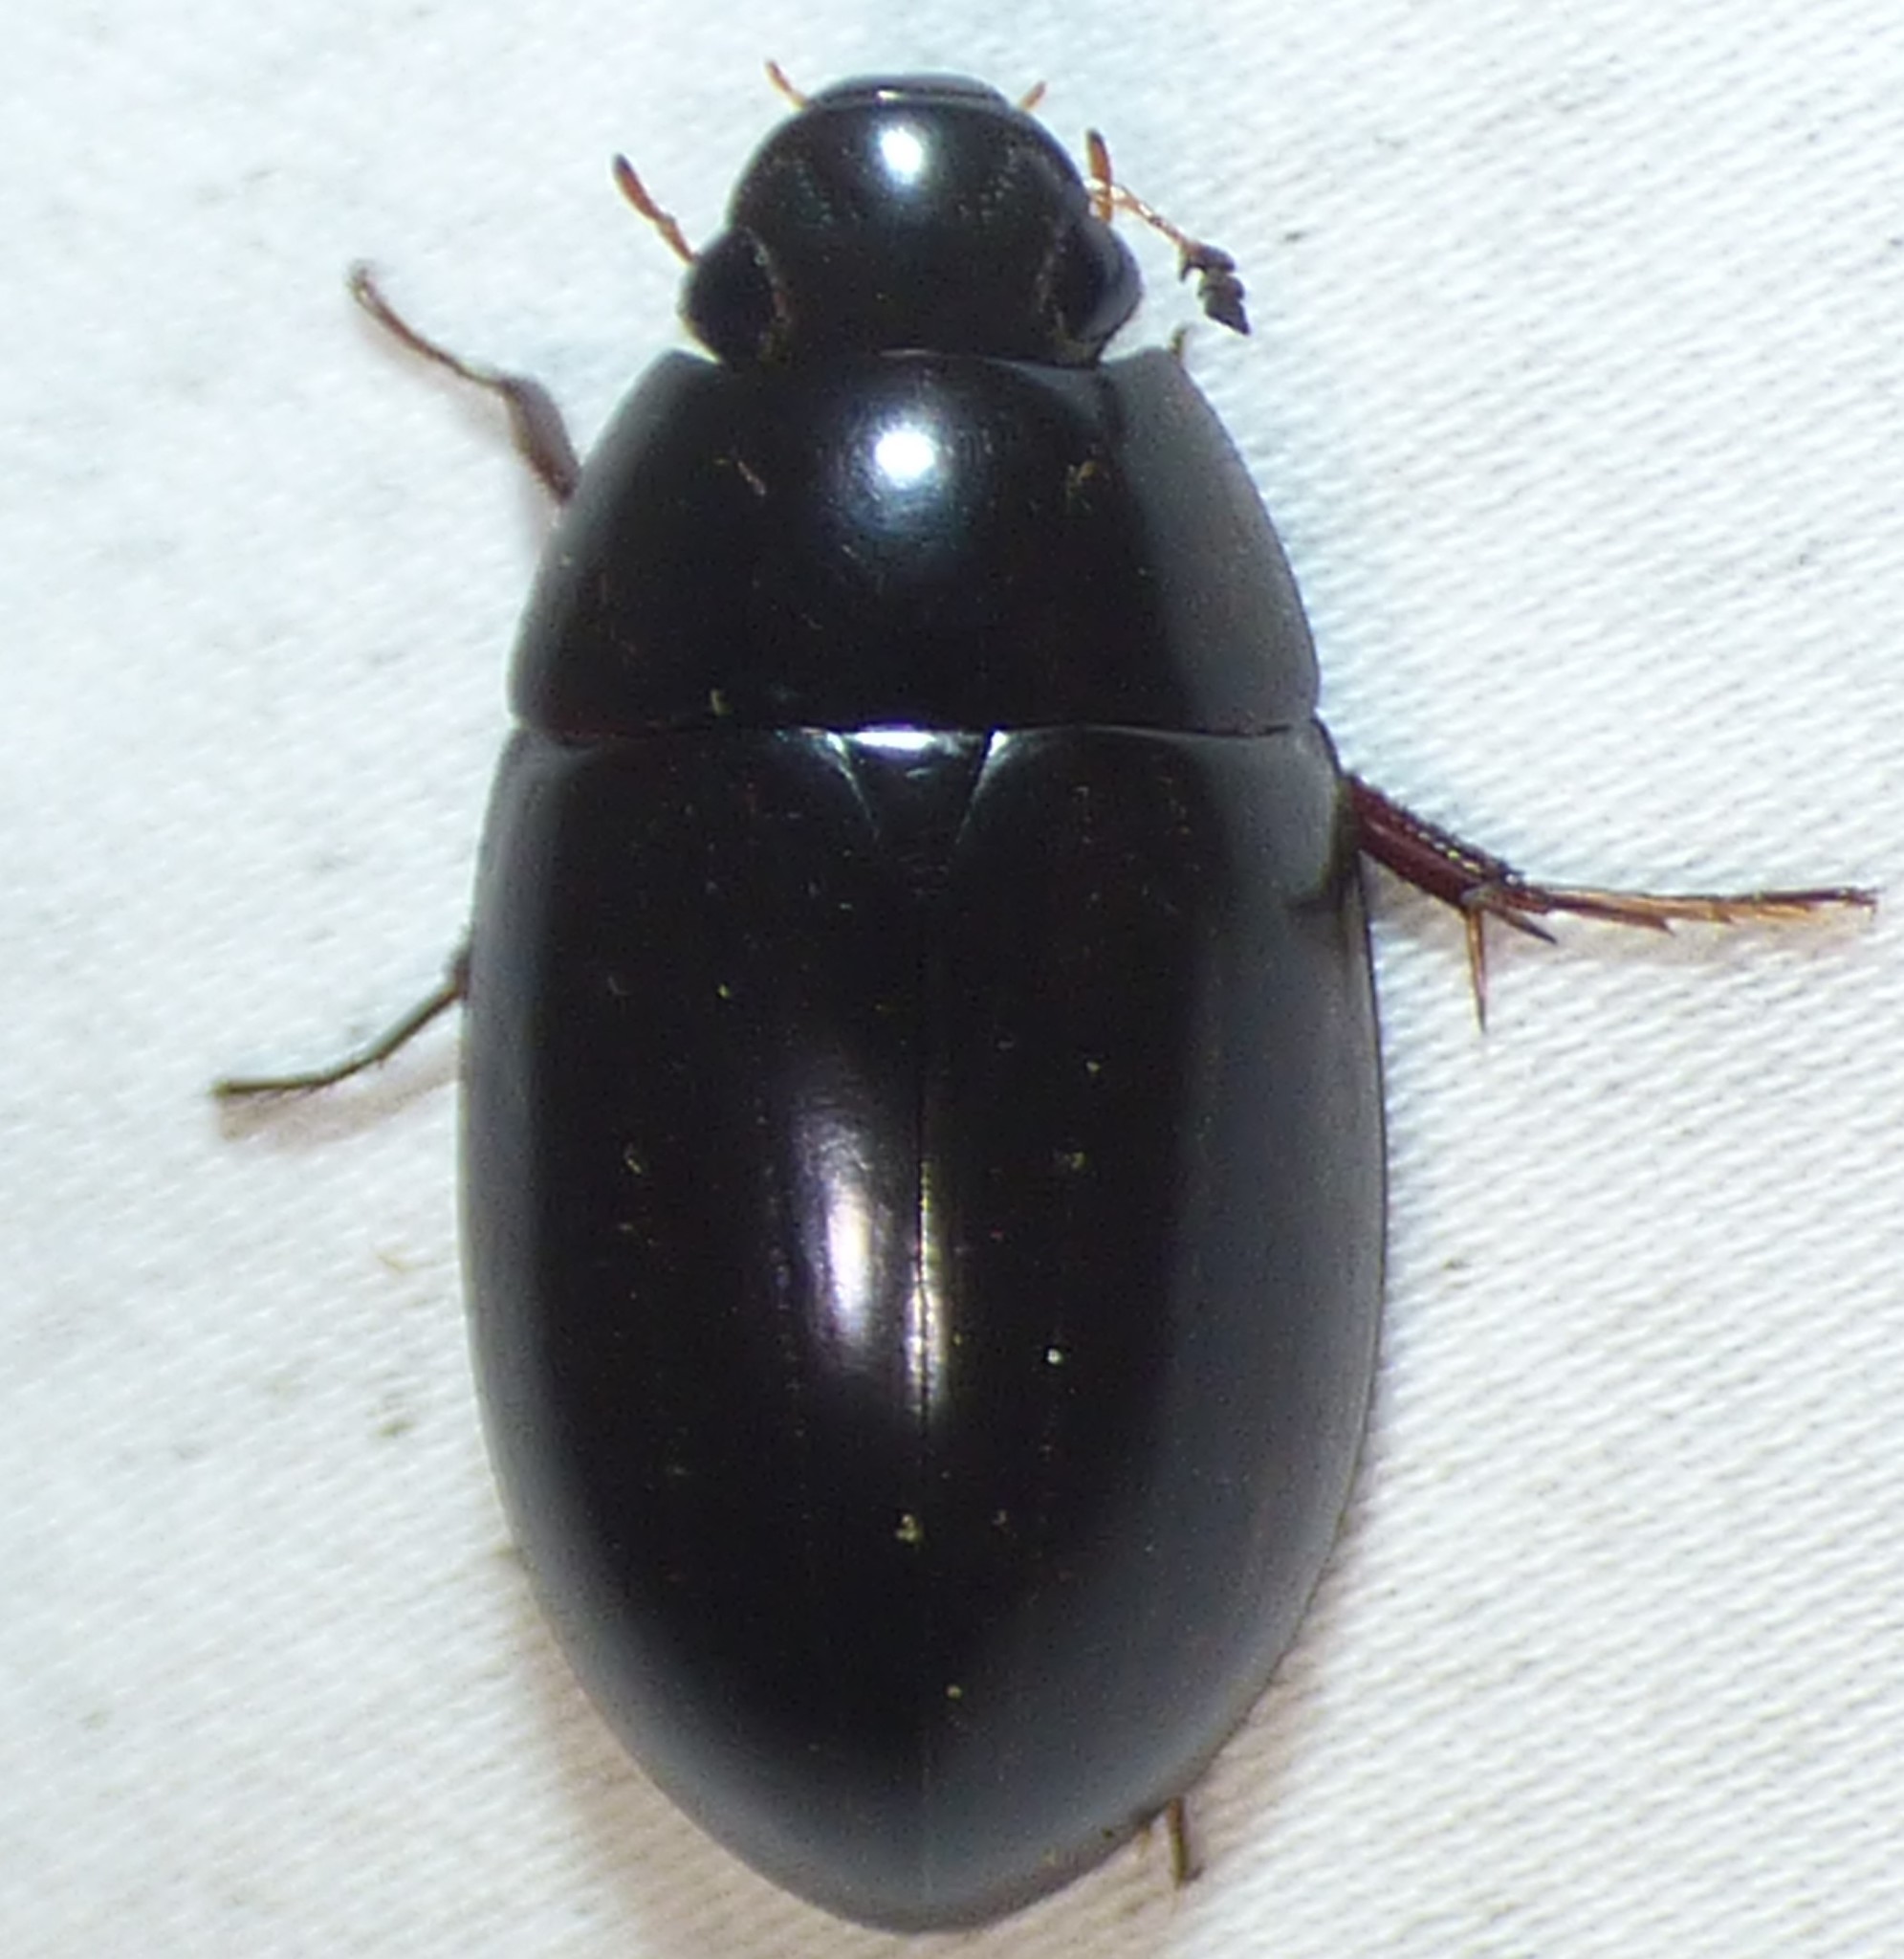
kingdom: Animalia
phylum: Arthropoda
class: Insecta
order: Coleoptera
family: Hydrophilidae
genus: Hydrochara
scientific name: Hydrochara soror
